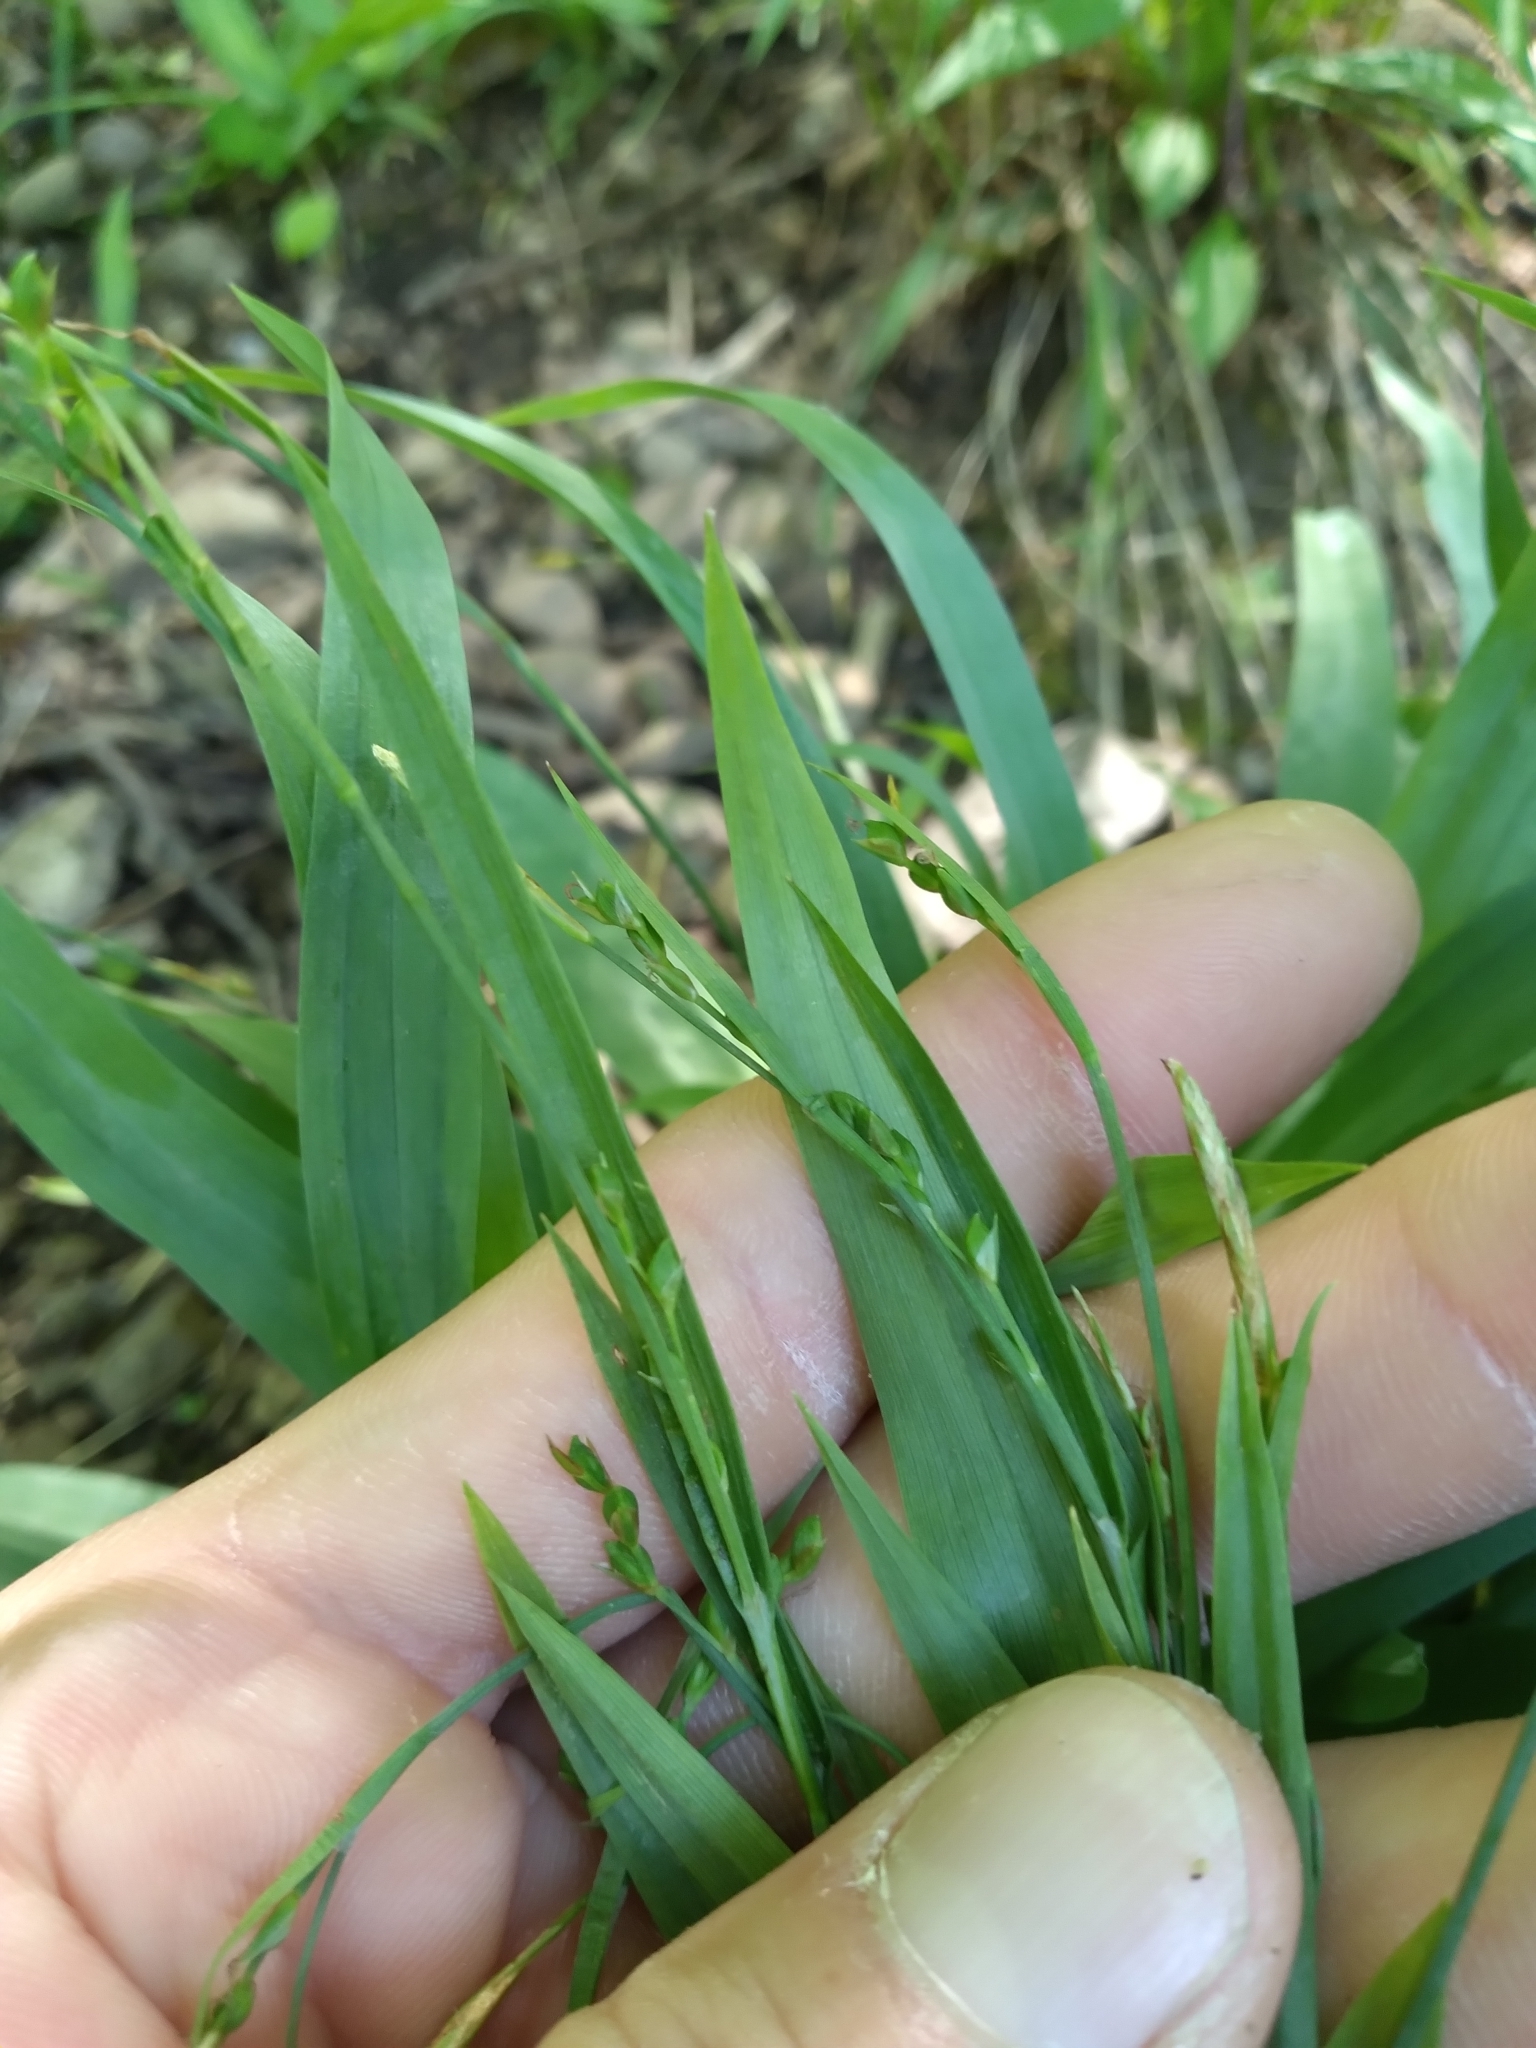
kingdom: Plantae
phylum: Tracheophyta
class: Liliopsida
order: Poales
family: Cyperaceae
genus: Carex
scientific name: Carex platyphylla
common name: Broad-leaved sedge
